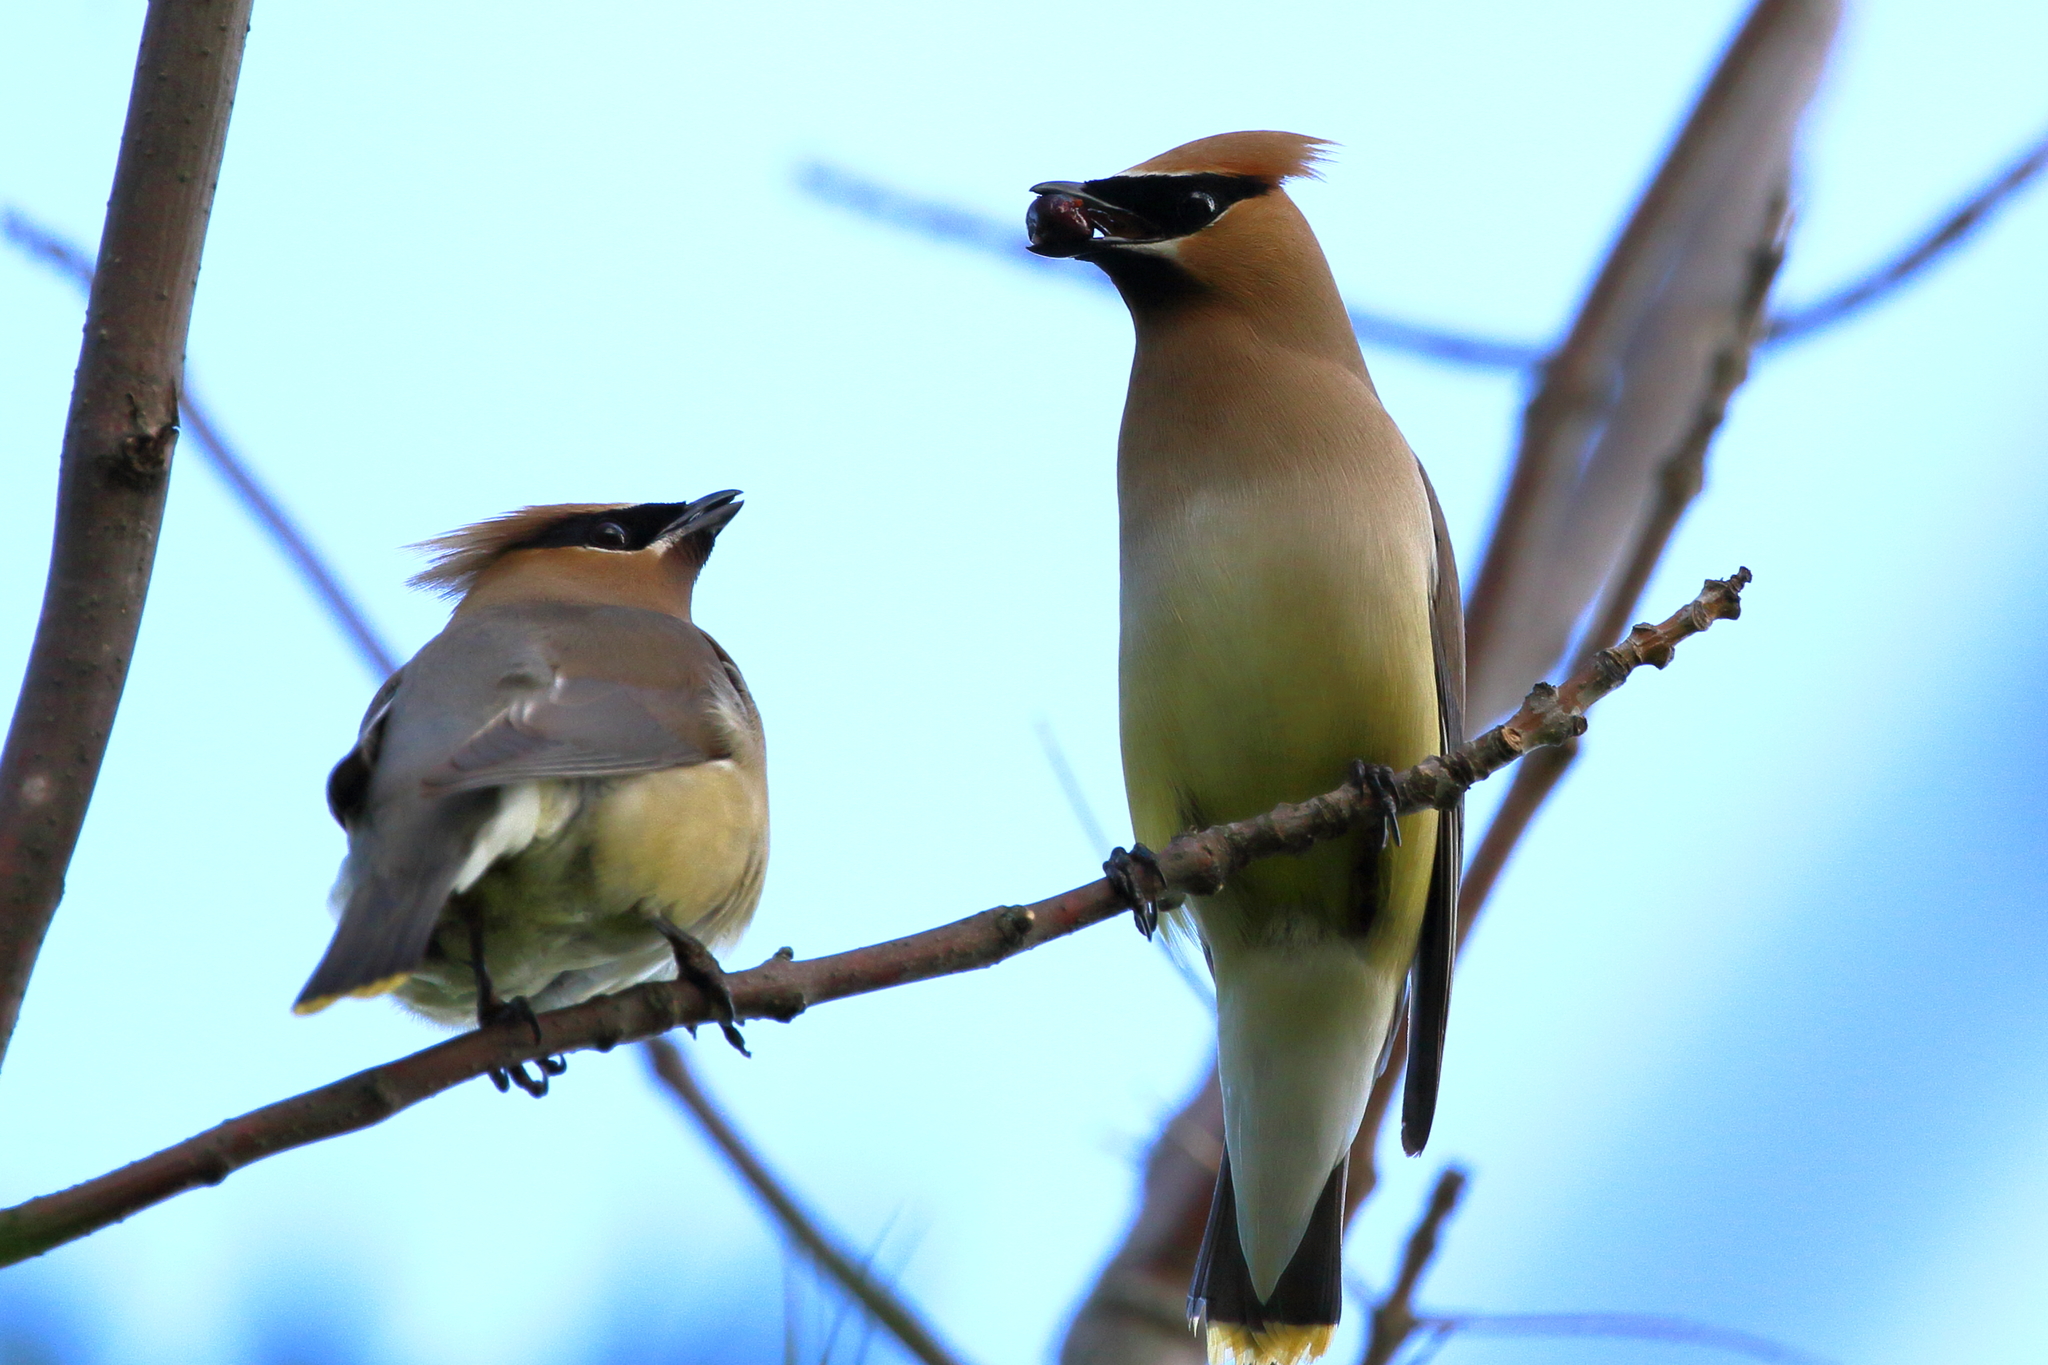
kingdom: Animalia
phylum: Chordata
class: Aves
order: Passeriformes
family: Bombycillidae
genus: Bombycilla
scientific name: Bombycilla cedrorum
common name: Cedar waxwing
